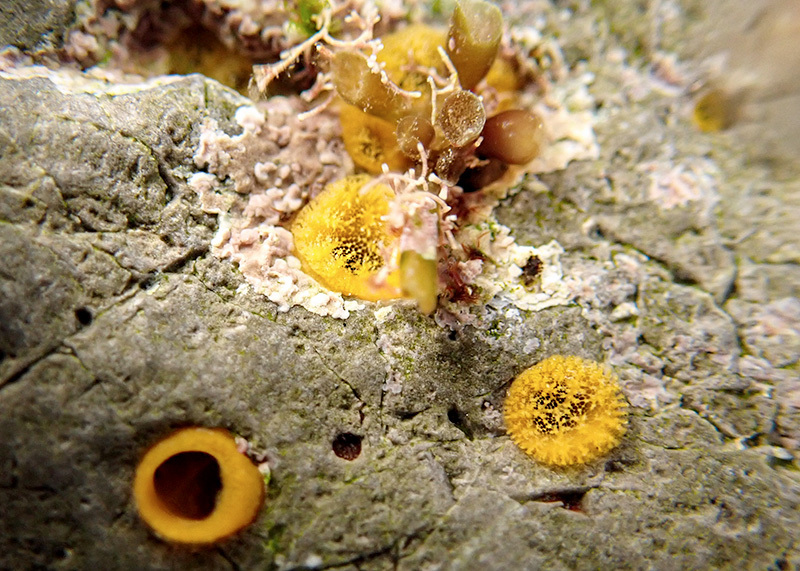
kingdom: Animalia
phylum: Porifera
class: Demospongiae
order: Clionaida
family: Clionaidae
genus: Cliona
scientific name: Cliona celata
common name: Boring sponge
